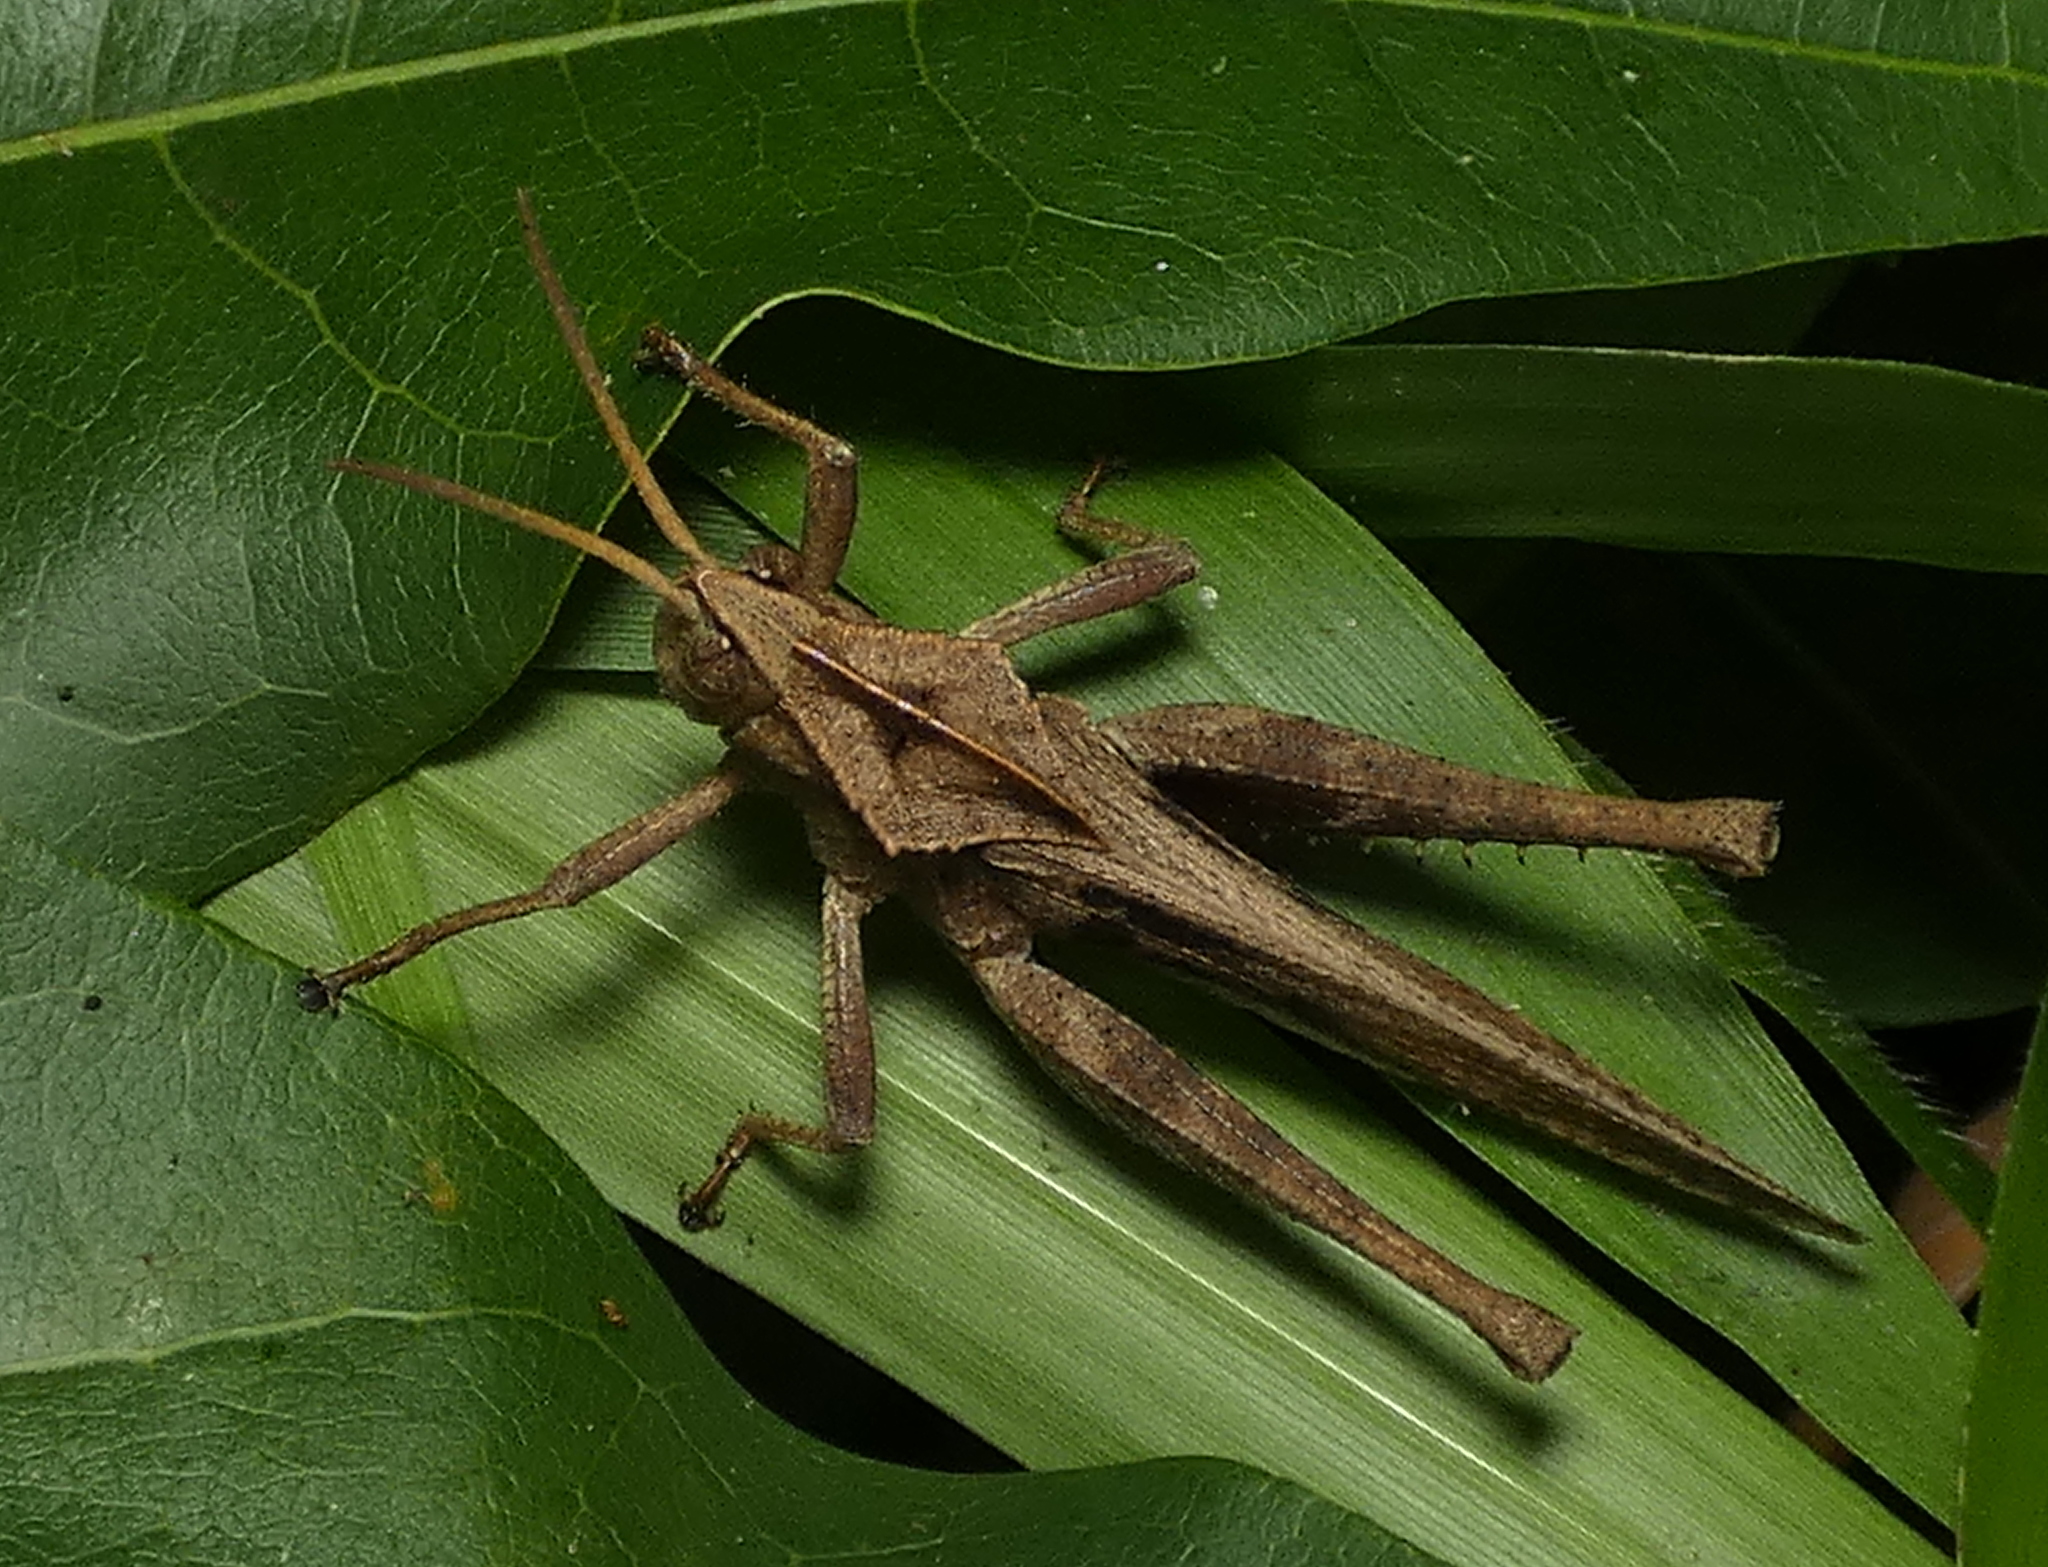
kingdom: Animalia
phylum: Arthropoda
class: Insecta
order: Orthoptera
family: Romaleidae
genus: Xyleus
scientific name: Xyleus discoideus
